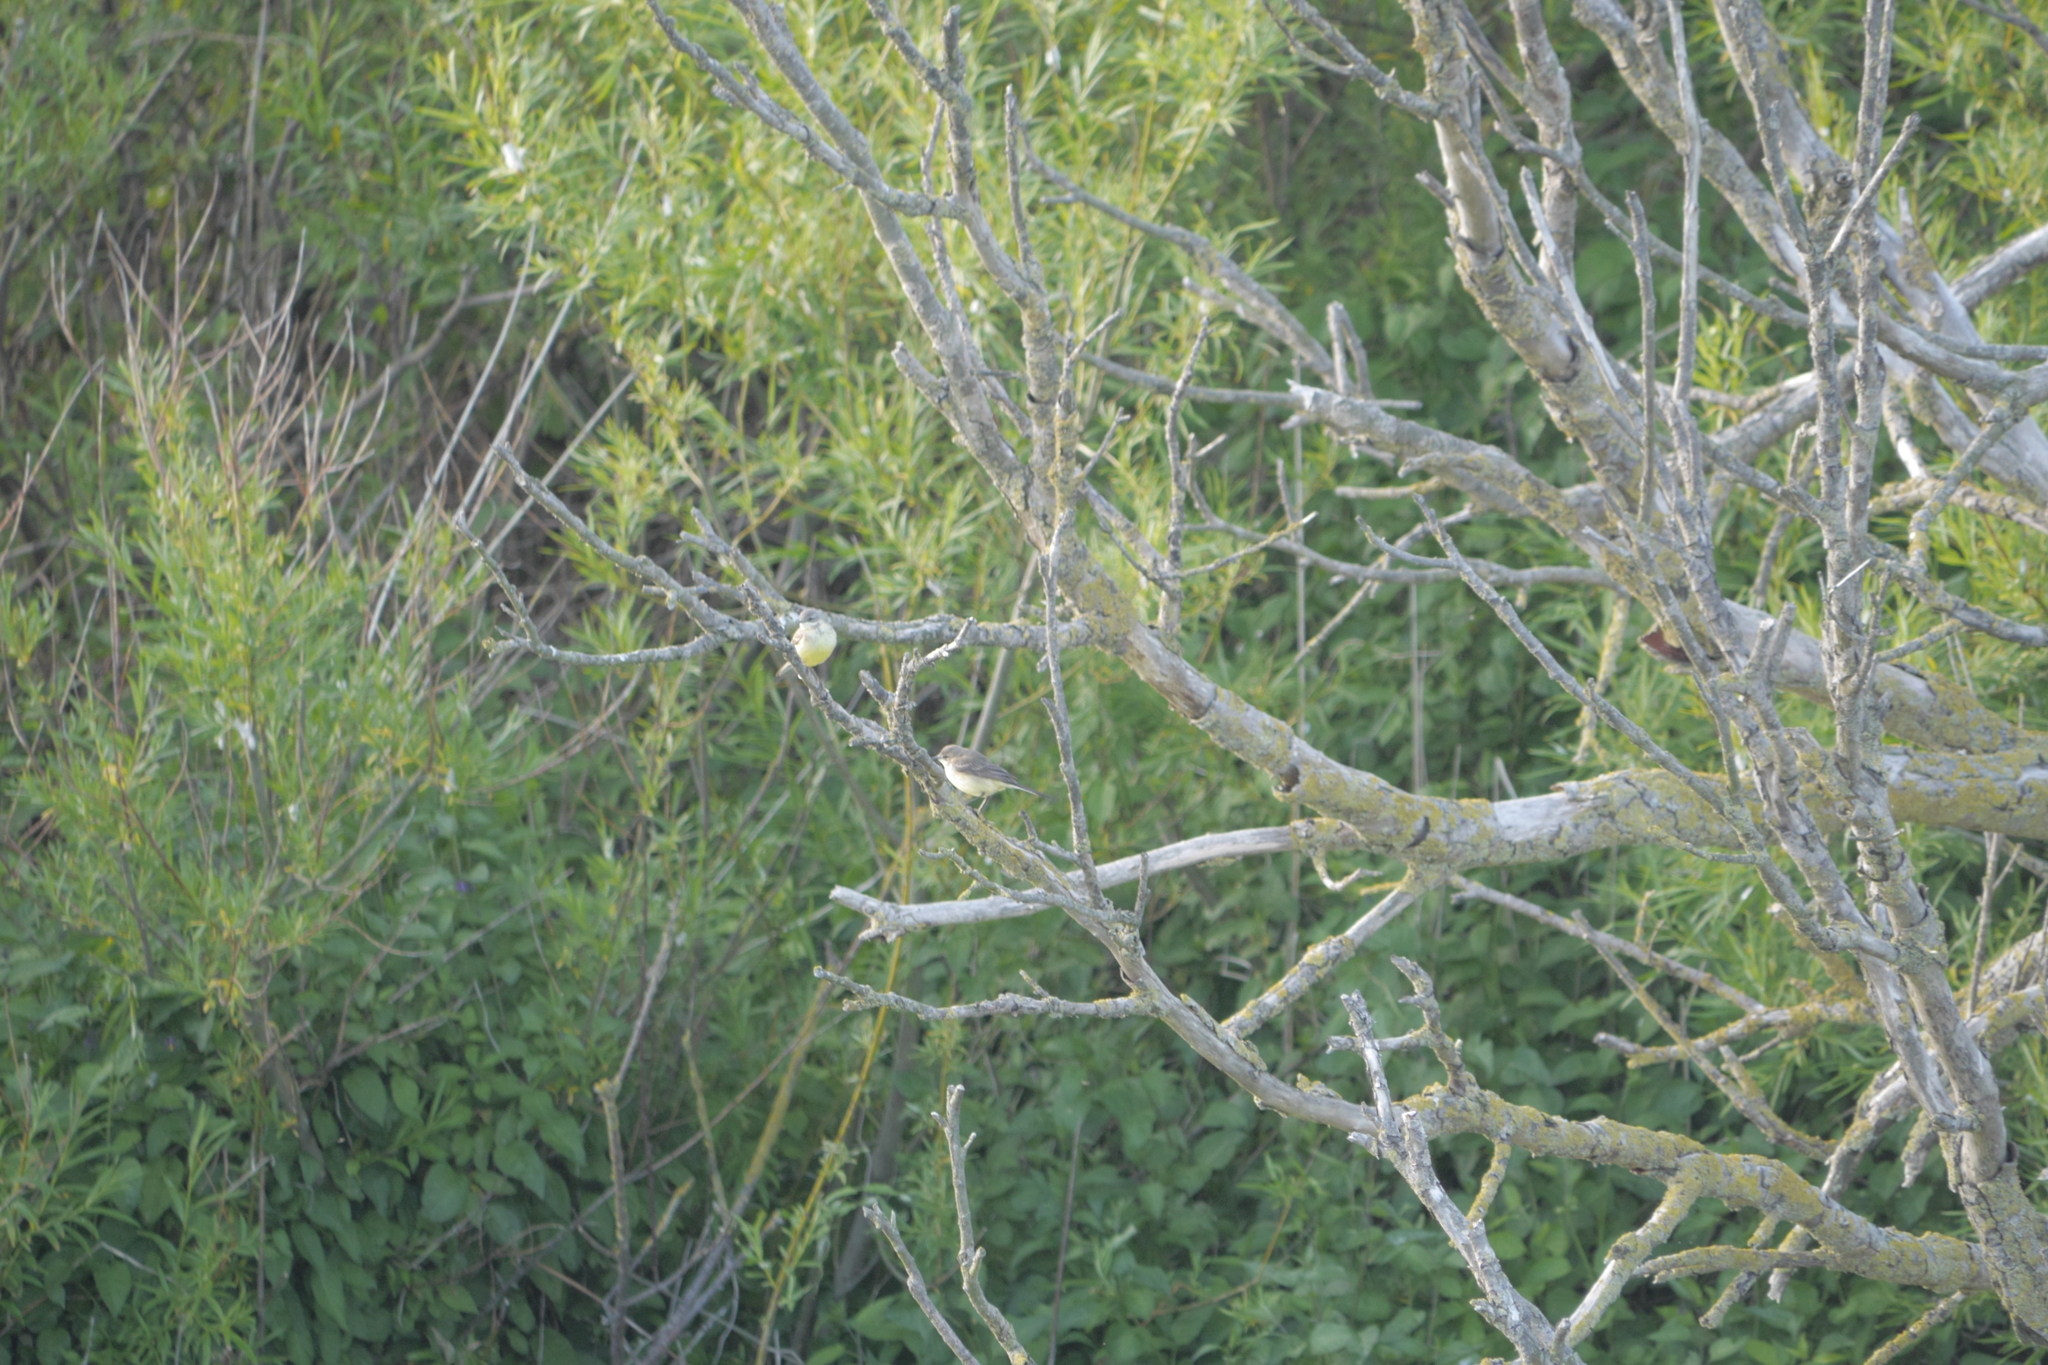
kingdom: Animalia
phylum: Chordata
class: Aves
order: Passeriformes
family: Motacillidae
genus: Motacilla
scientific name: Motacilla flava
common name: Western yellow wagtail
